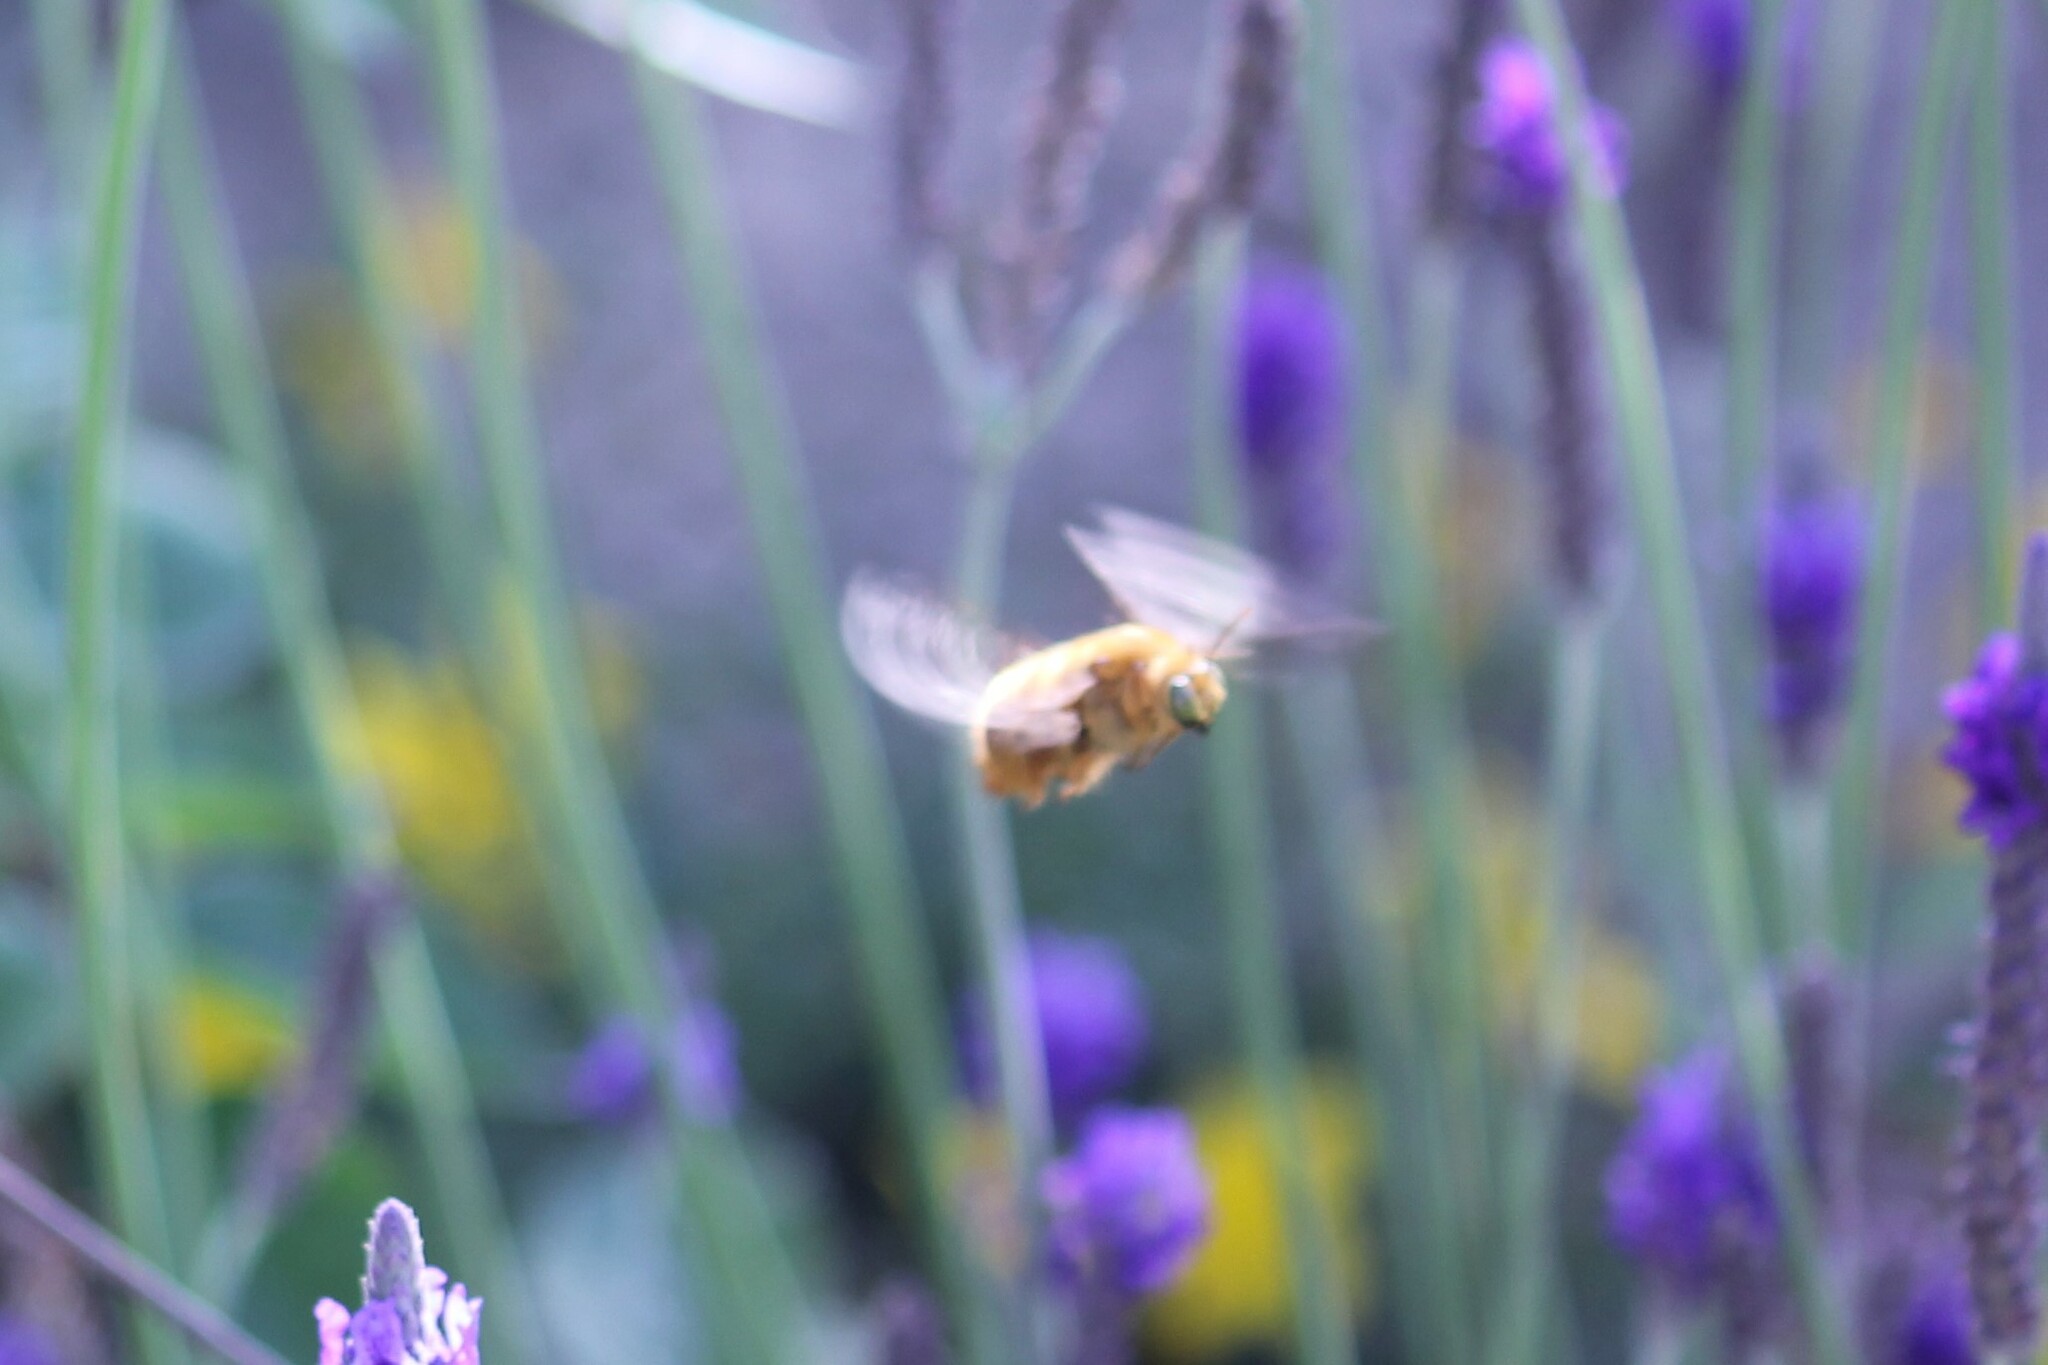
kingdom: Animalia
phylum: Arthropoda
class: Insecta
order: Hymenoptera
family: Apidae
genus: Xylocopa
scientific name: Xylocopa sonorina
